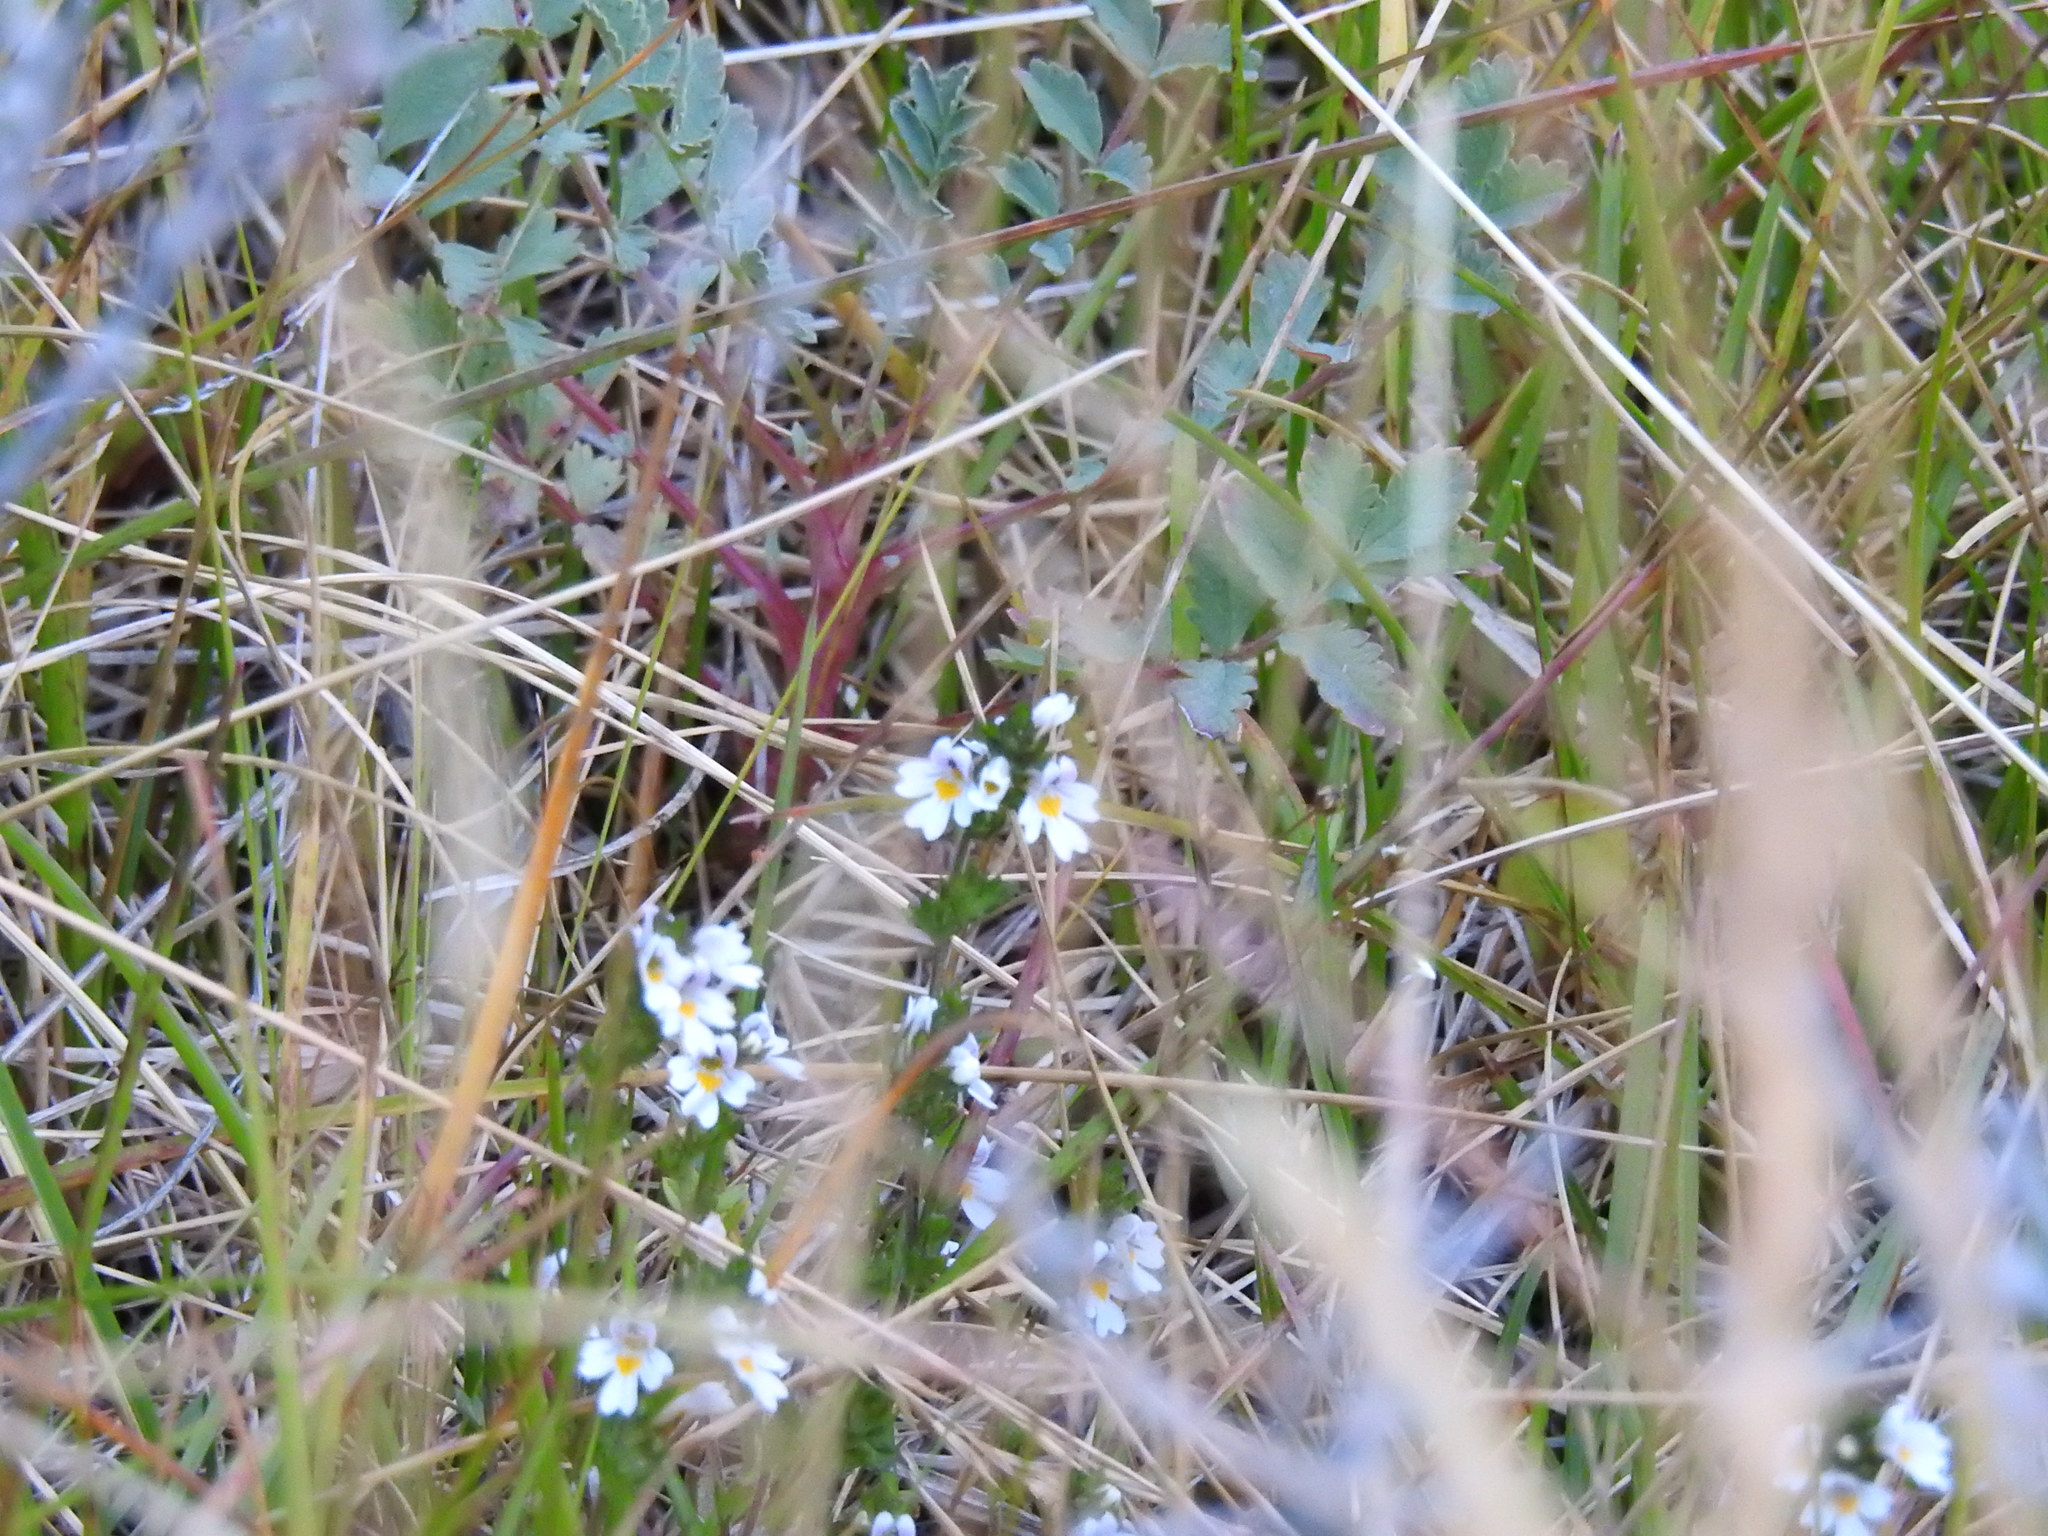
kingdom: Plantae
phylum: Tracheophyta
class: Magnoliopsida
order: Lamiales
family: Orobanchaceae
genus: Euphrasia
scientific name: Euphrasia officinalis
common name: Eyebright
